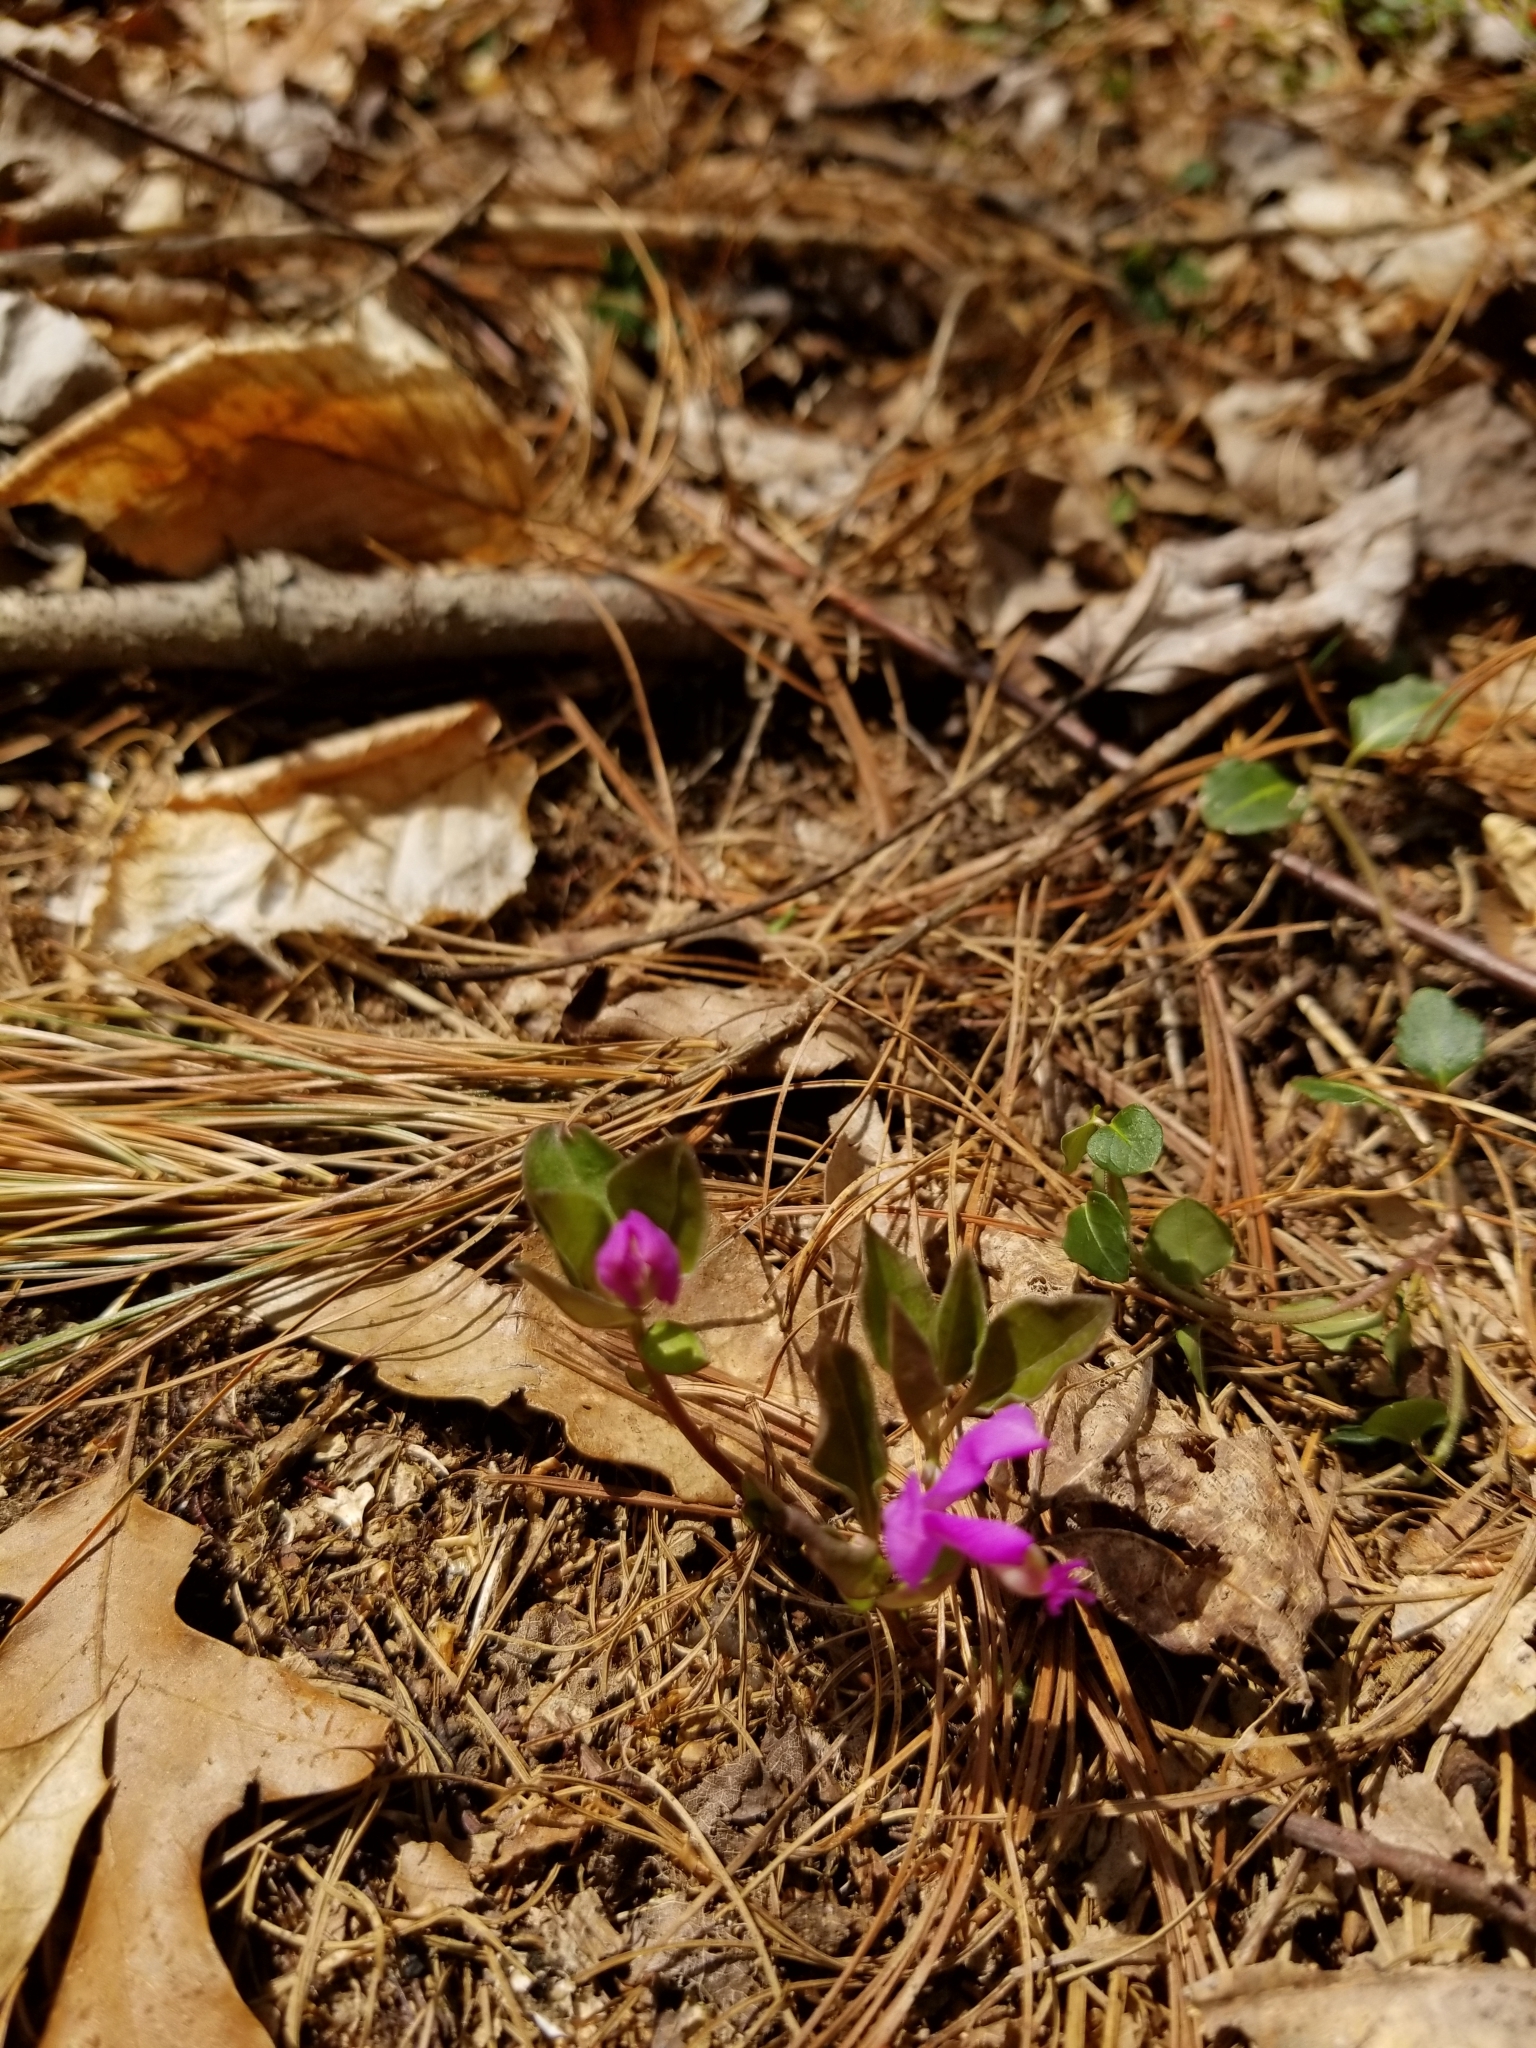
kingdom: Plantae
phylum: Tracheophyta
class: Magnoliopsida
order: Fabales
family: Polygalaceae
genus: Polygaloides
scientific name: Polygaloides paucifolia
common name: Bird-on-the-wing
